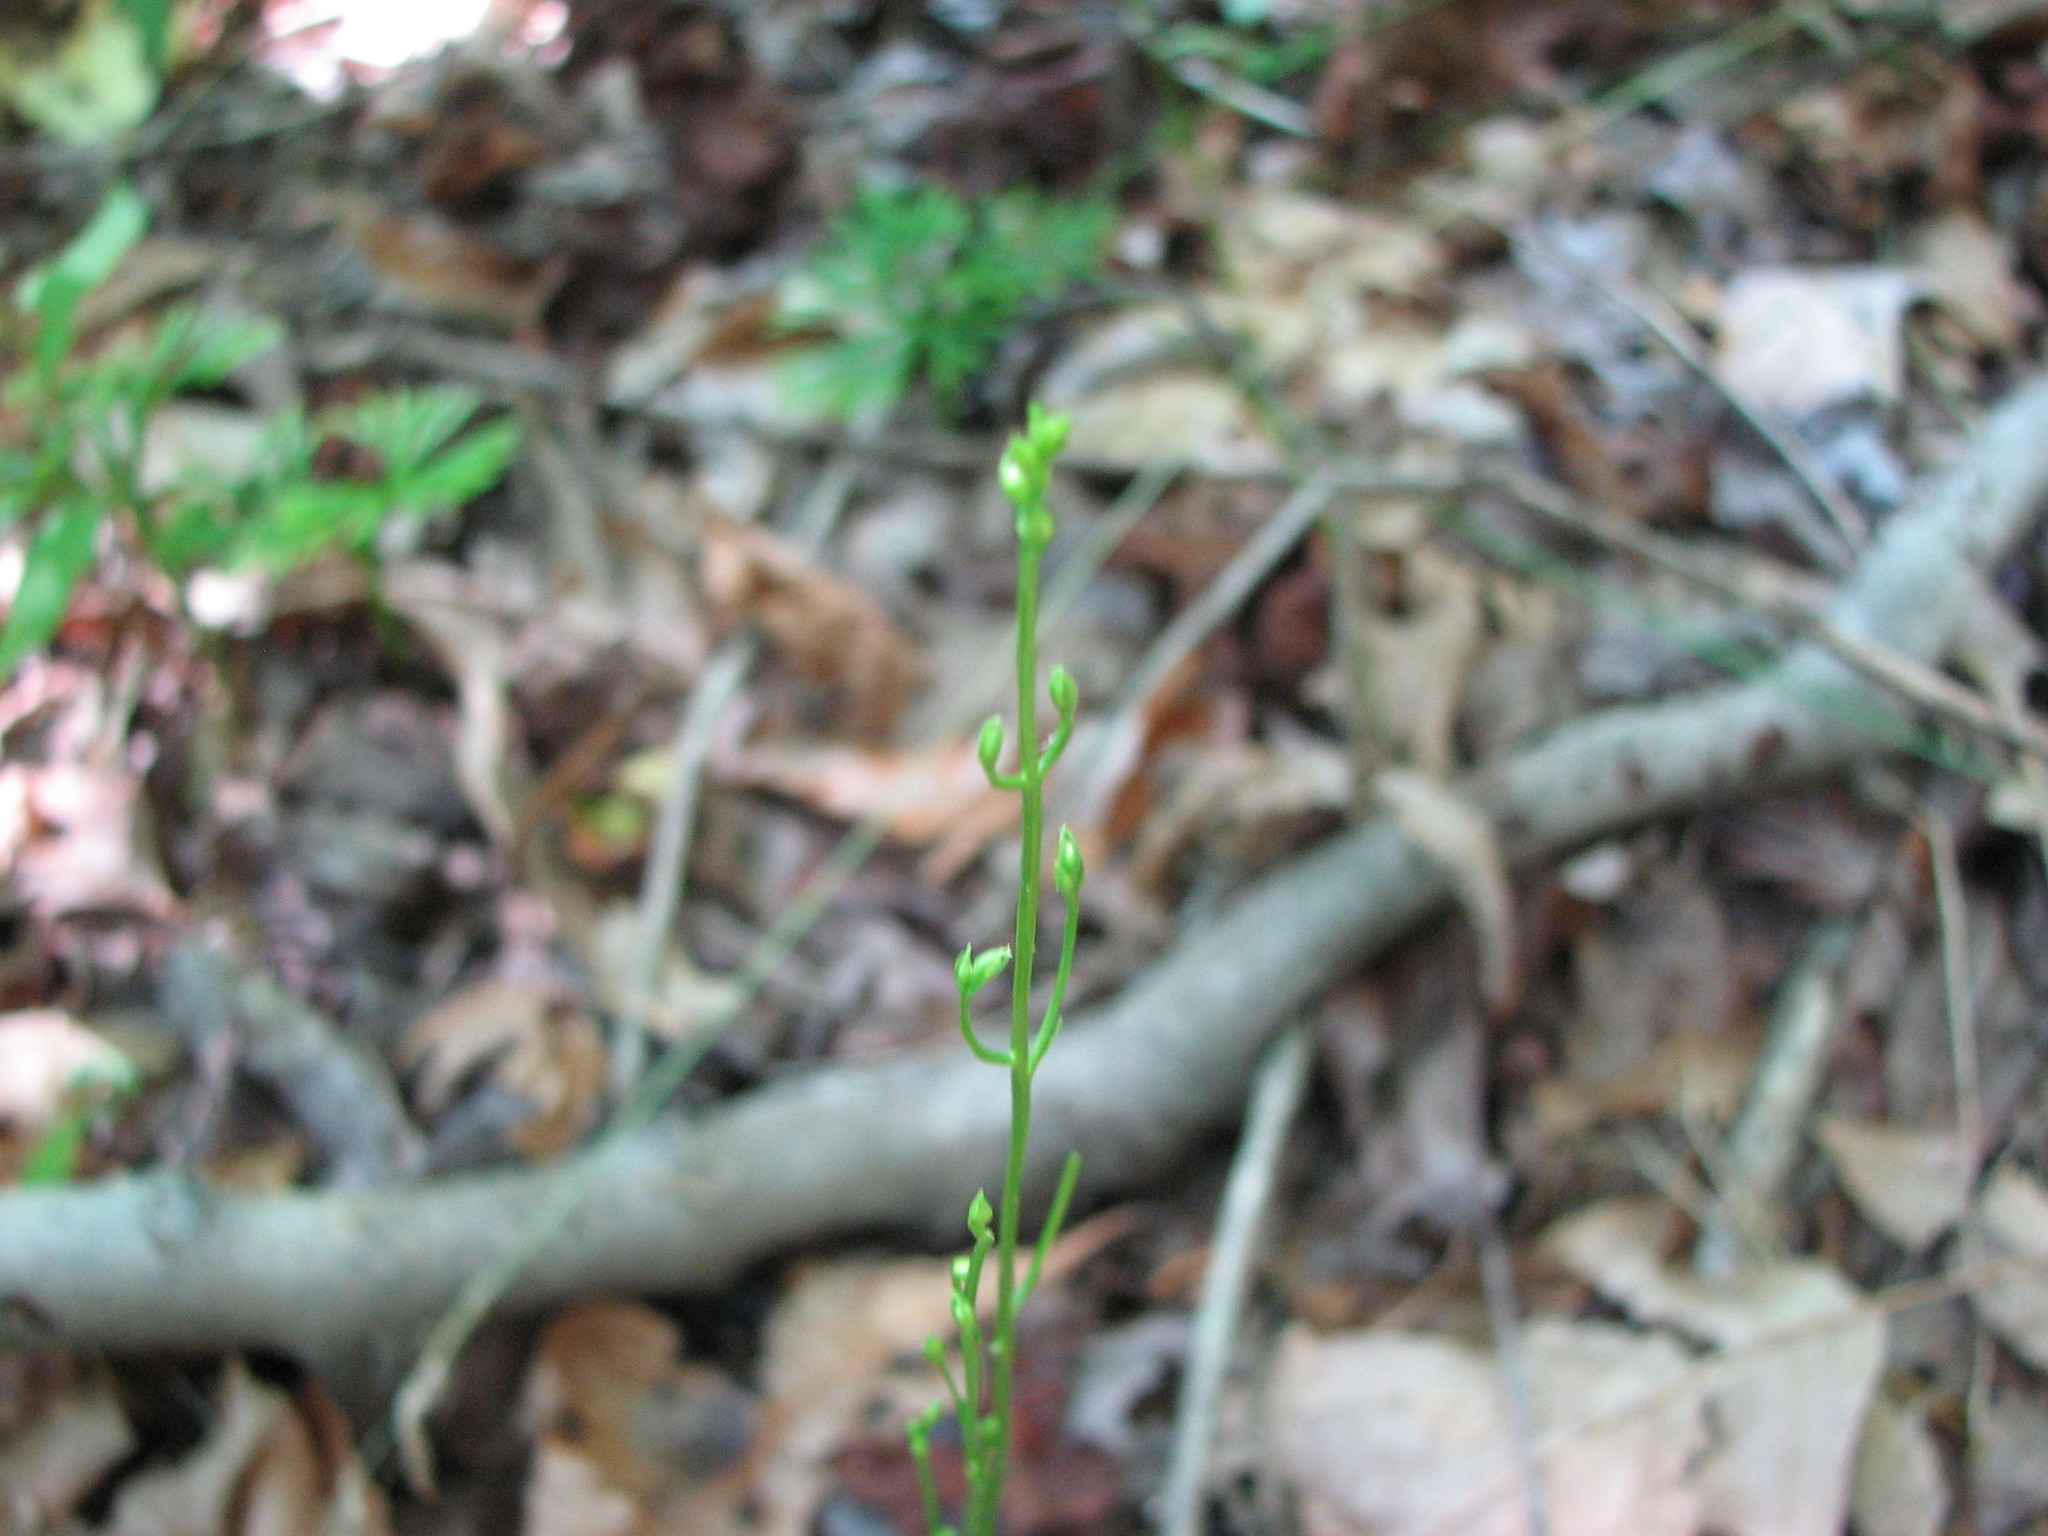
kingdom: Plantae
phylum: Tracheophyta
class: Magnoliopsida
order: Gentianales
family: Gentianaceae
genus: Bartonia
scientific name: Bartonia virginica
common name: Yellow bartonia
